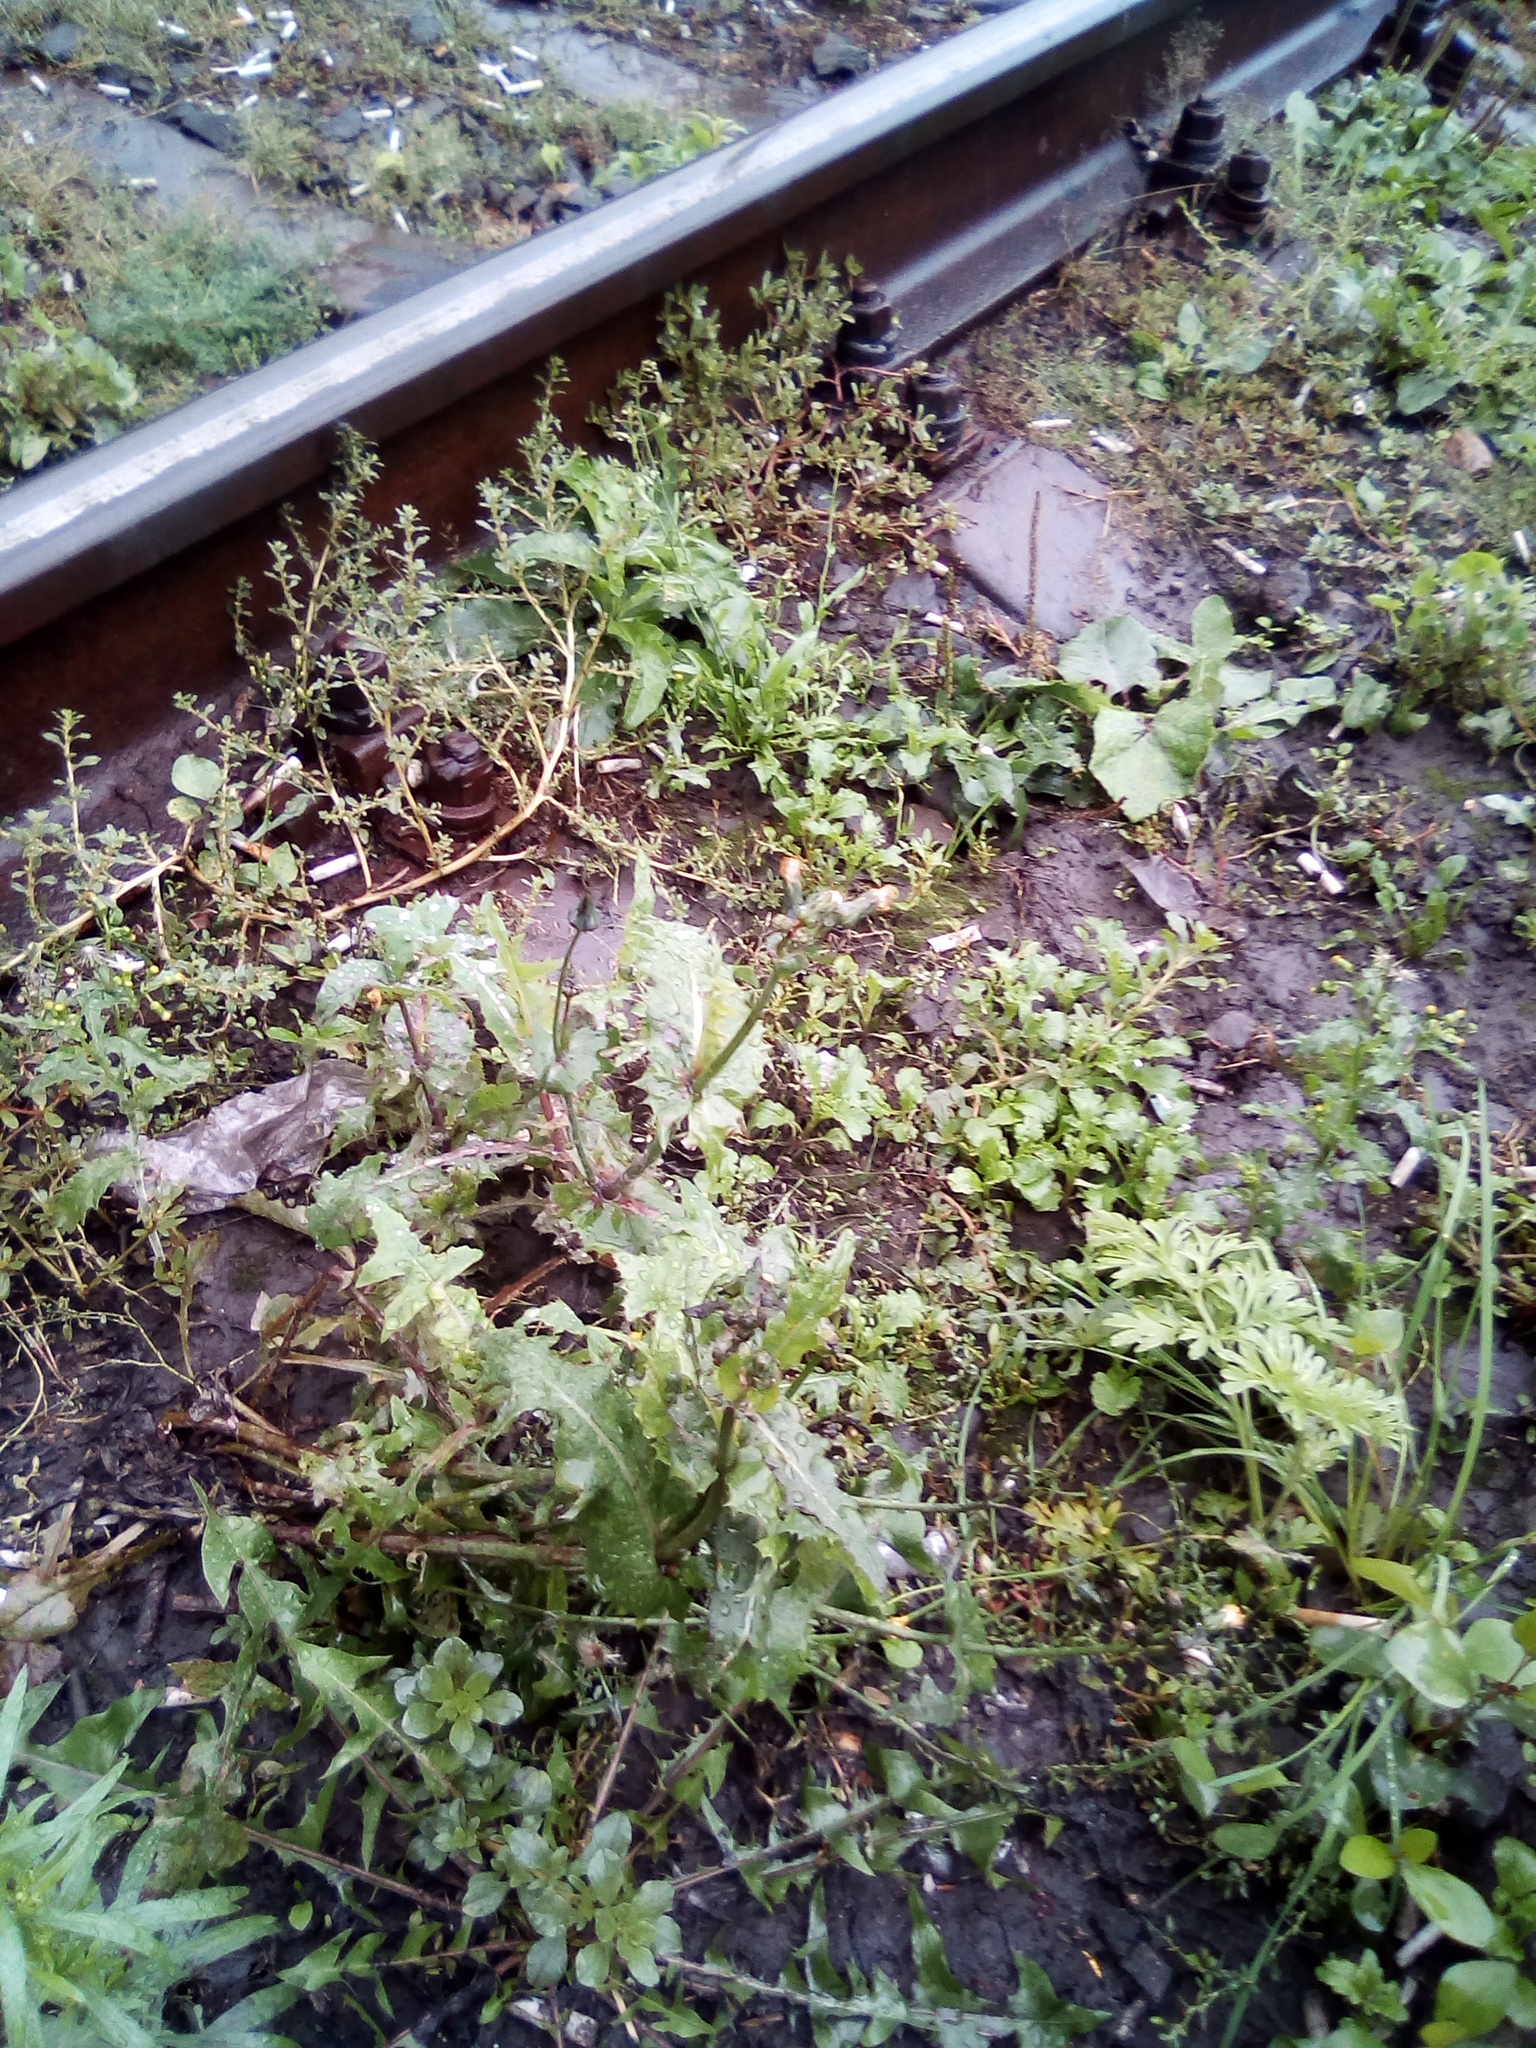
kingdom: Plantae
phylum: Tracheophyta
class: Magnoliopsida
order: Asterales
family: Asteraceae
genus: Sonchus
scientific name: Sonchus oleraceus
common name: Common sowthistle
